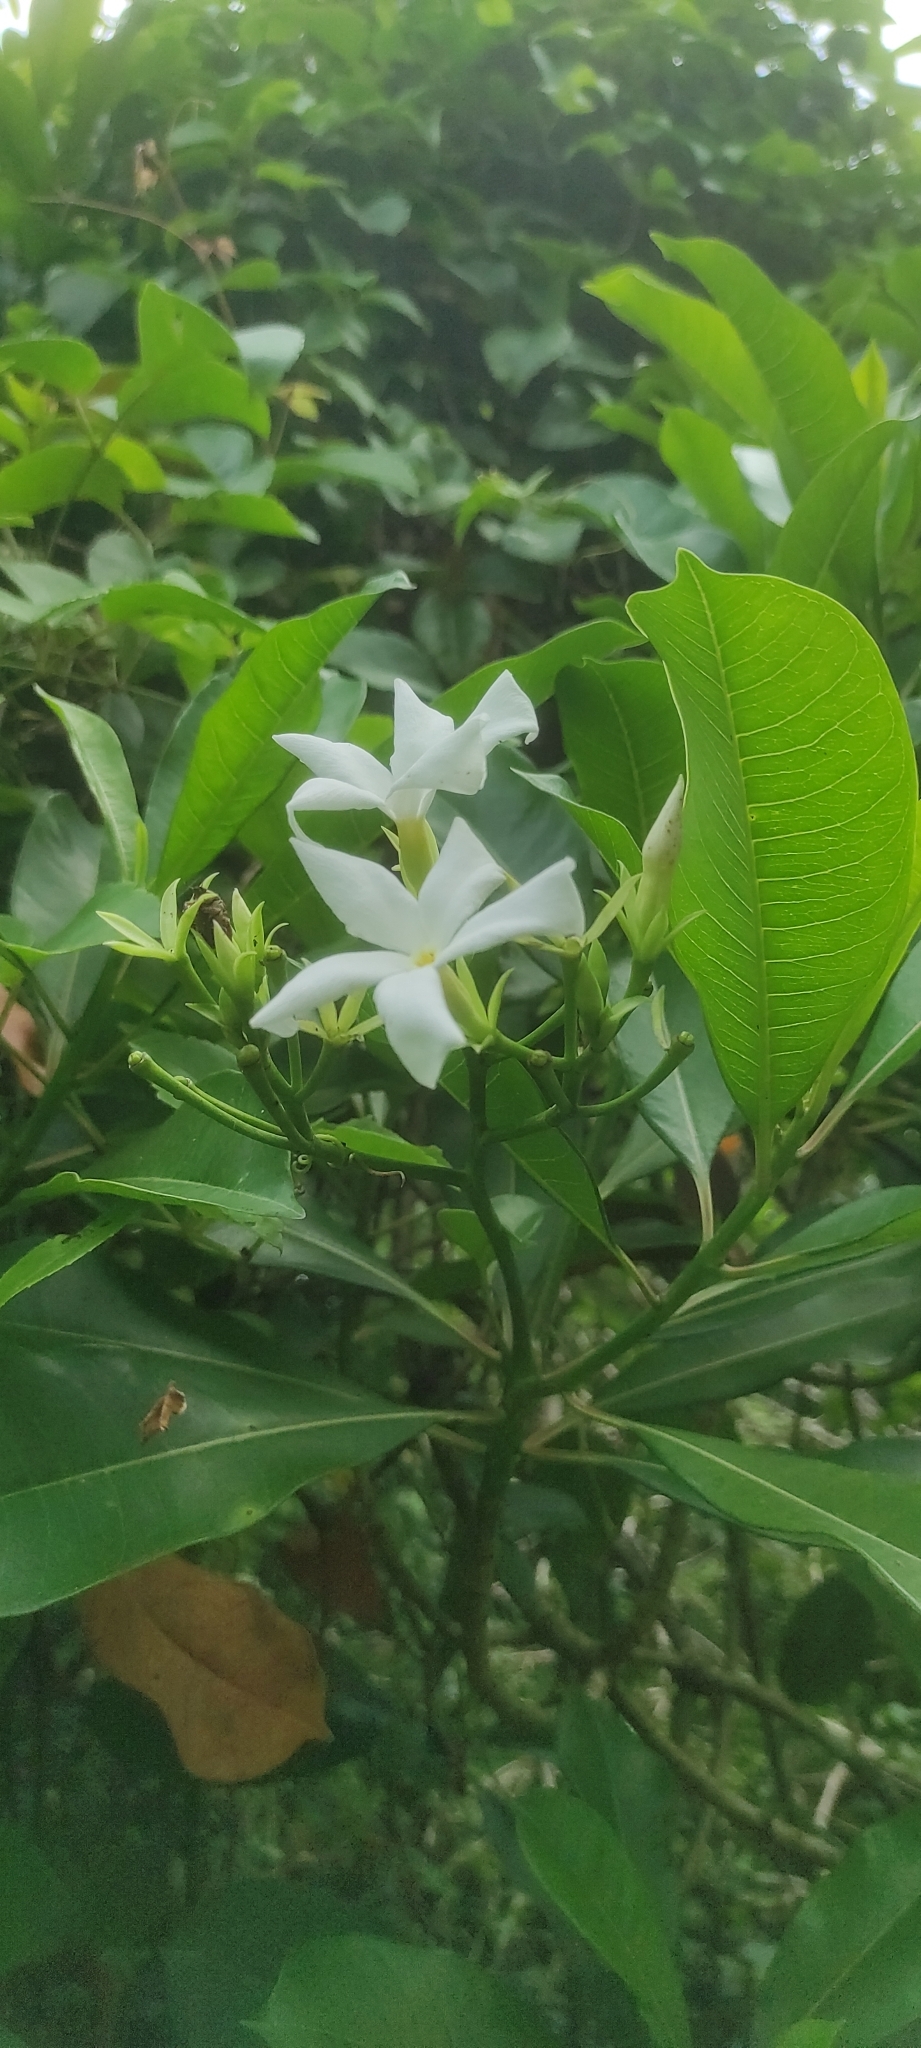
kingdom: Plantae
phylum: Tracheophyta
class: Magnoliopsida
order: Gentianales
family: Apocynaceae
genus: Cerbera
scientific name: Cerbera odollam
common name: Pong-pong
